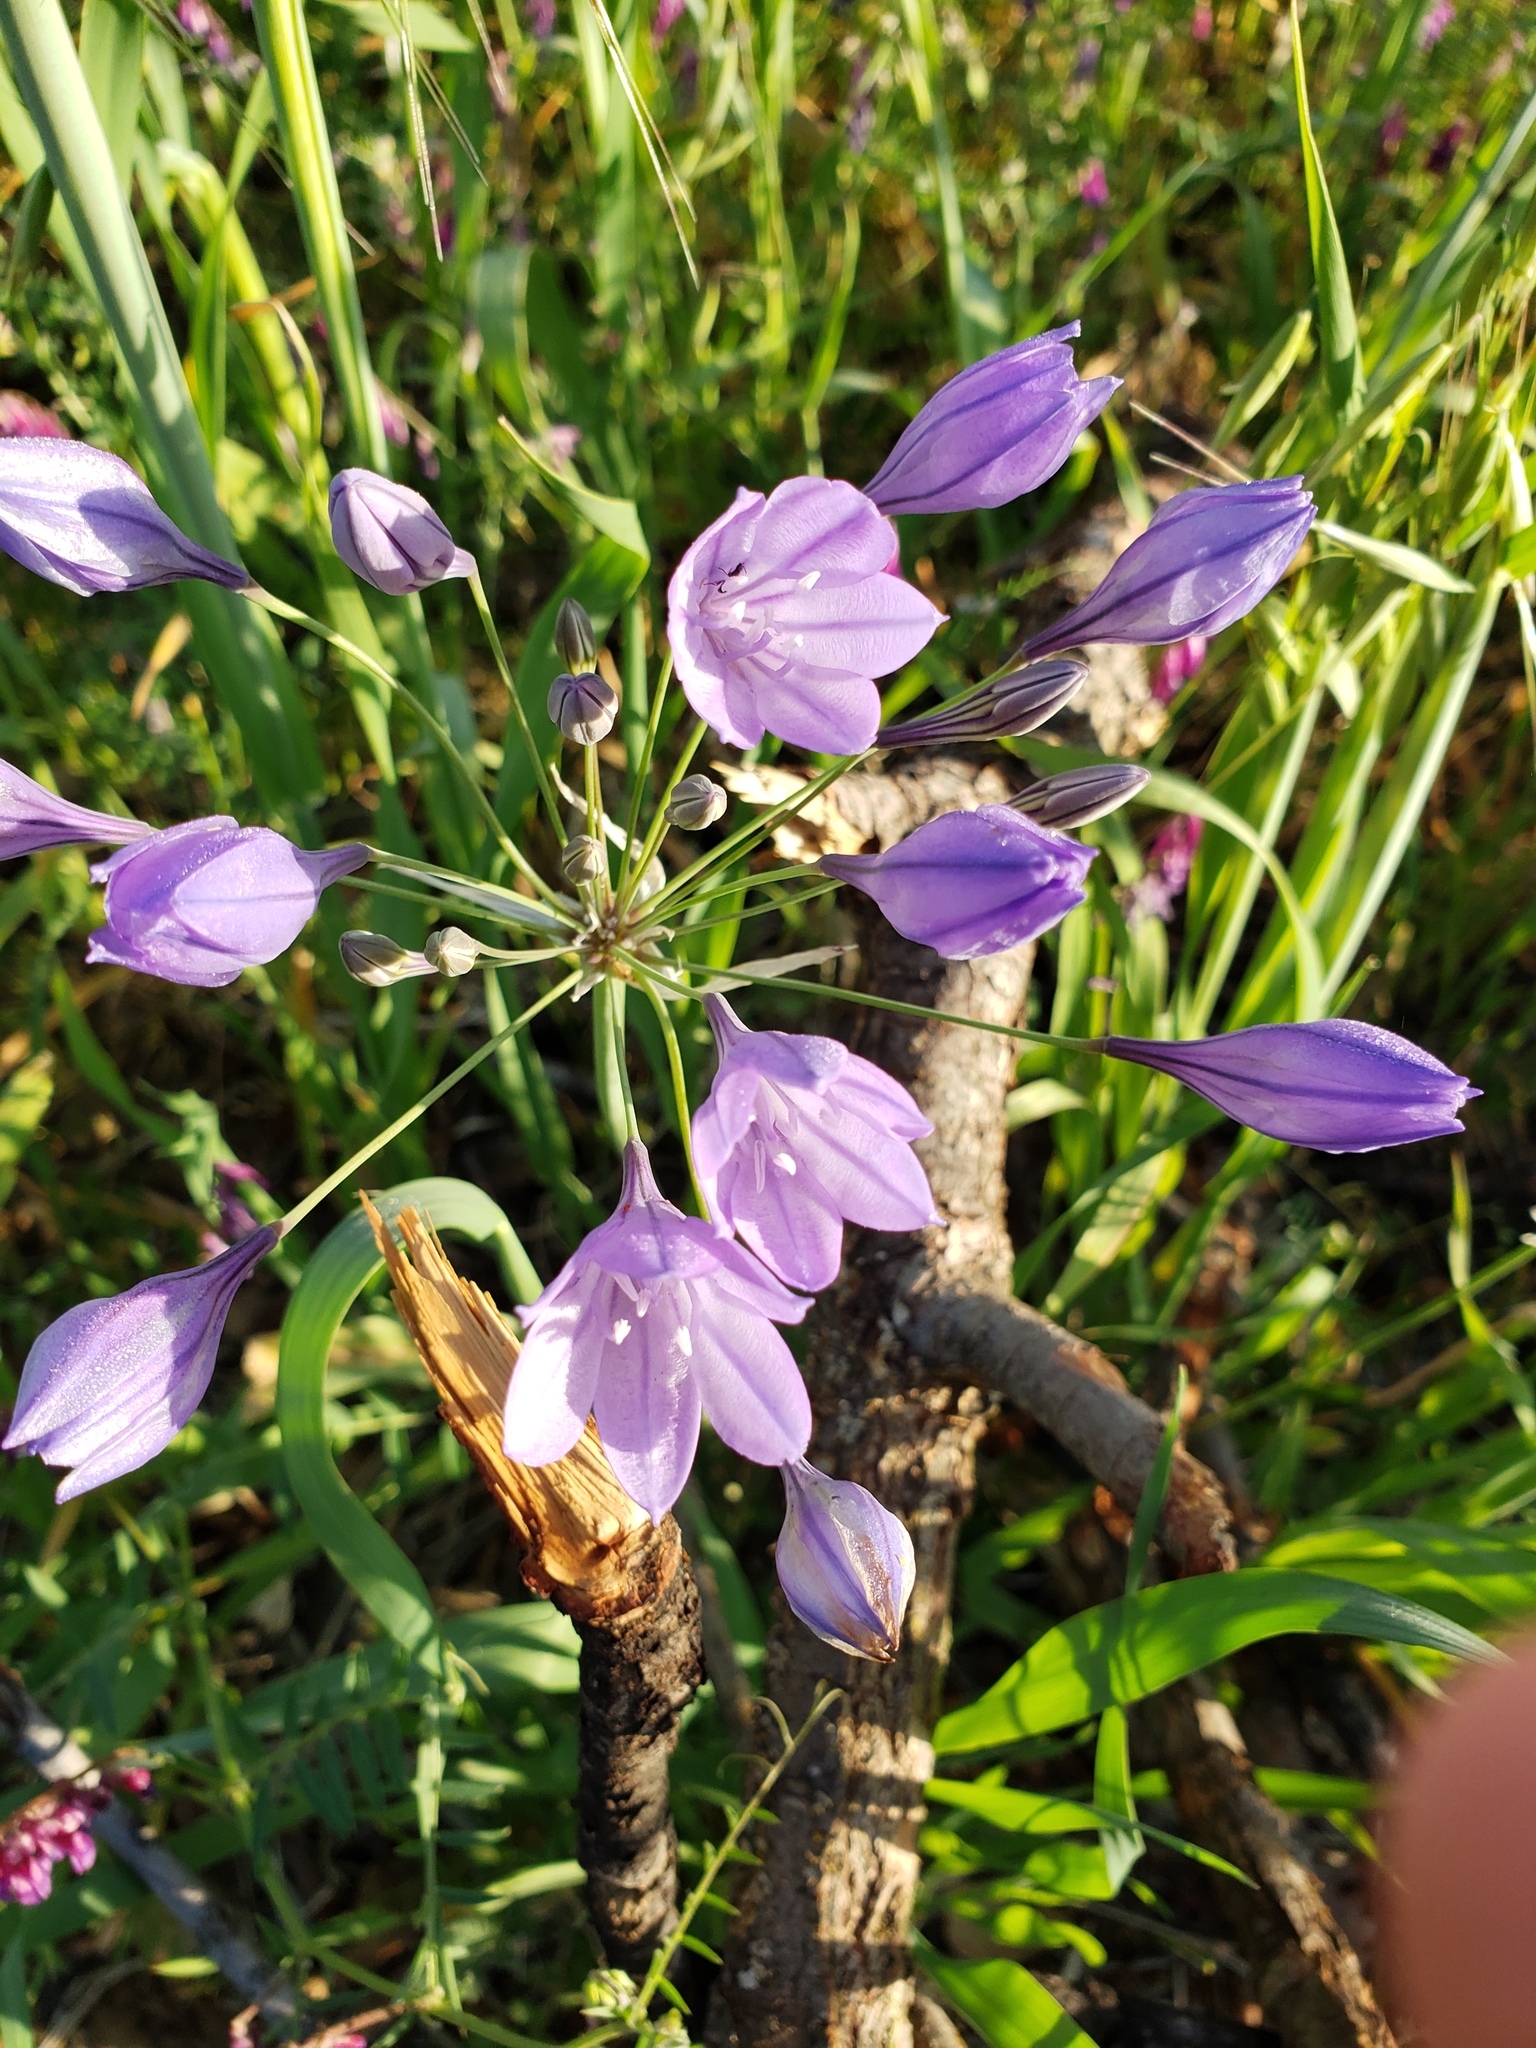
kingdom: Plantae
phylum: Tracheophyta
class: Liliopsida
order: Asparagales
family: Asparagaceae
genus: Triteleia
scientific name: Triteleia laxa
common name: Triplet-lily
